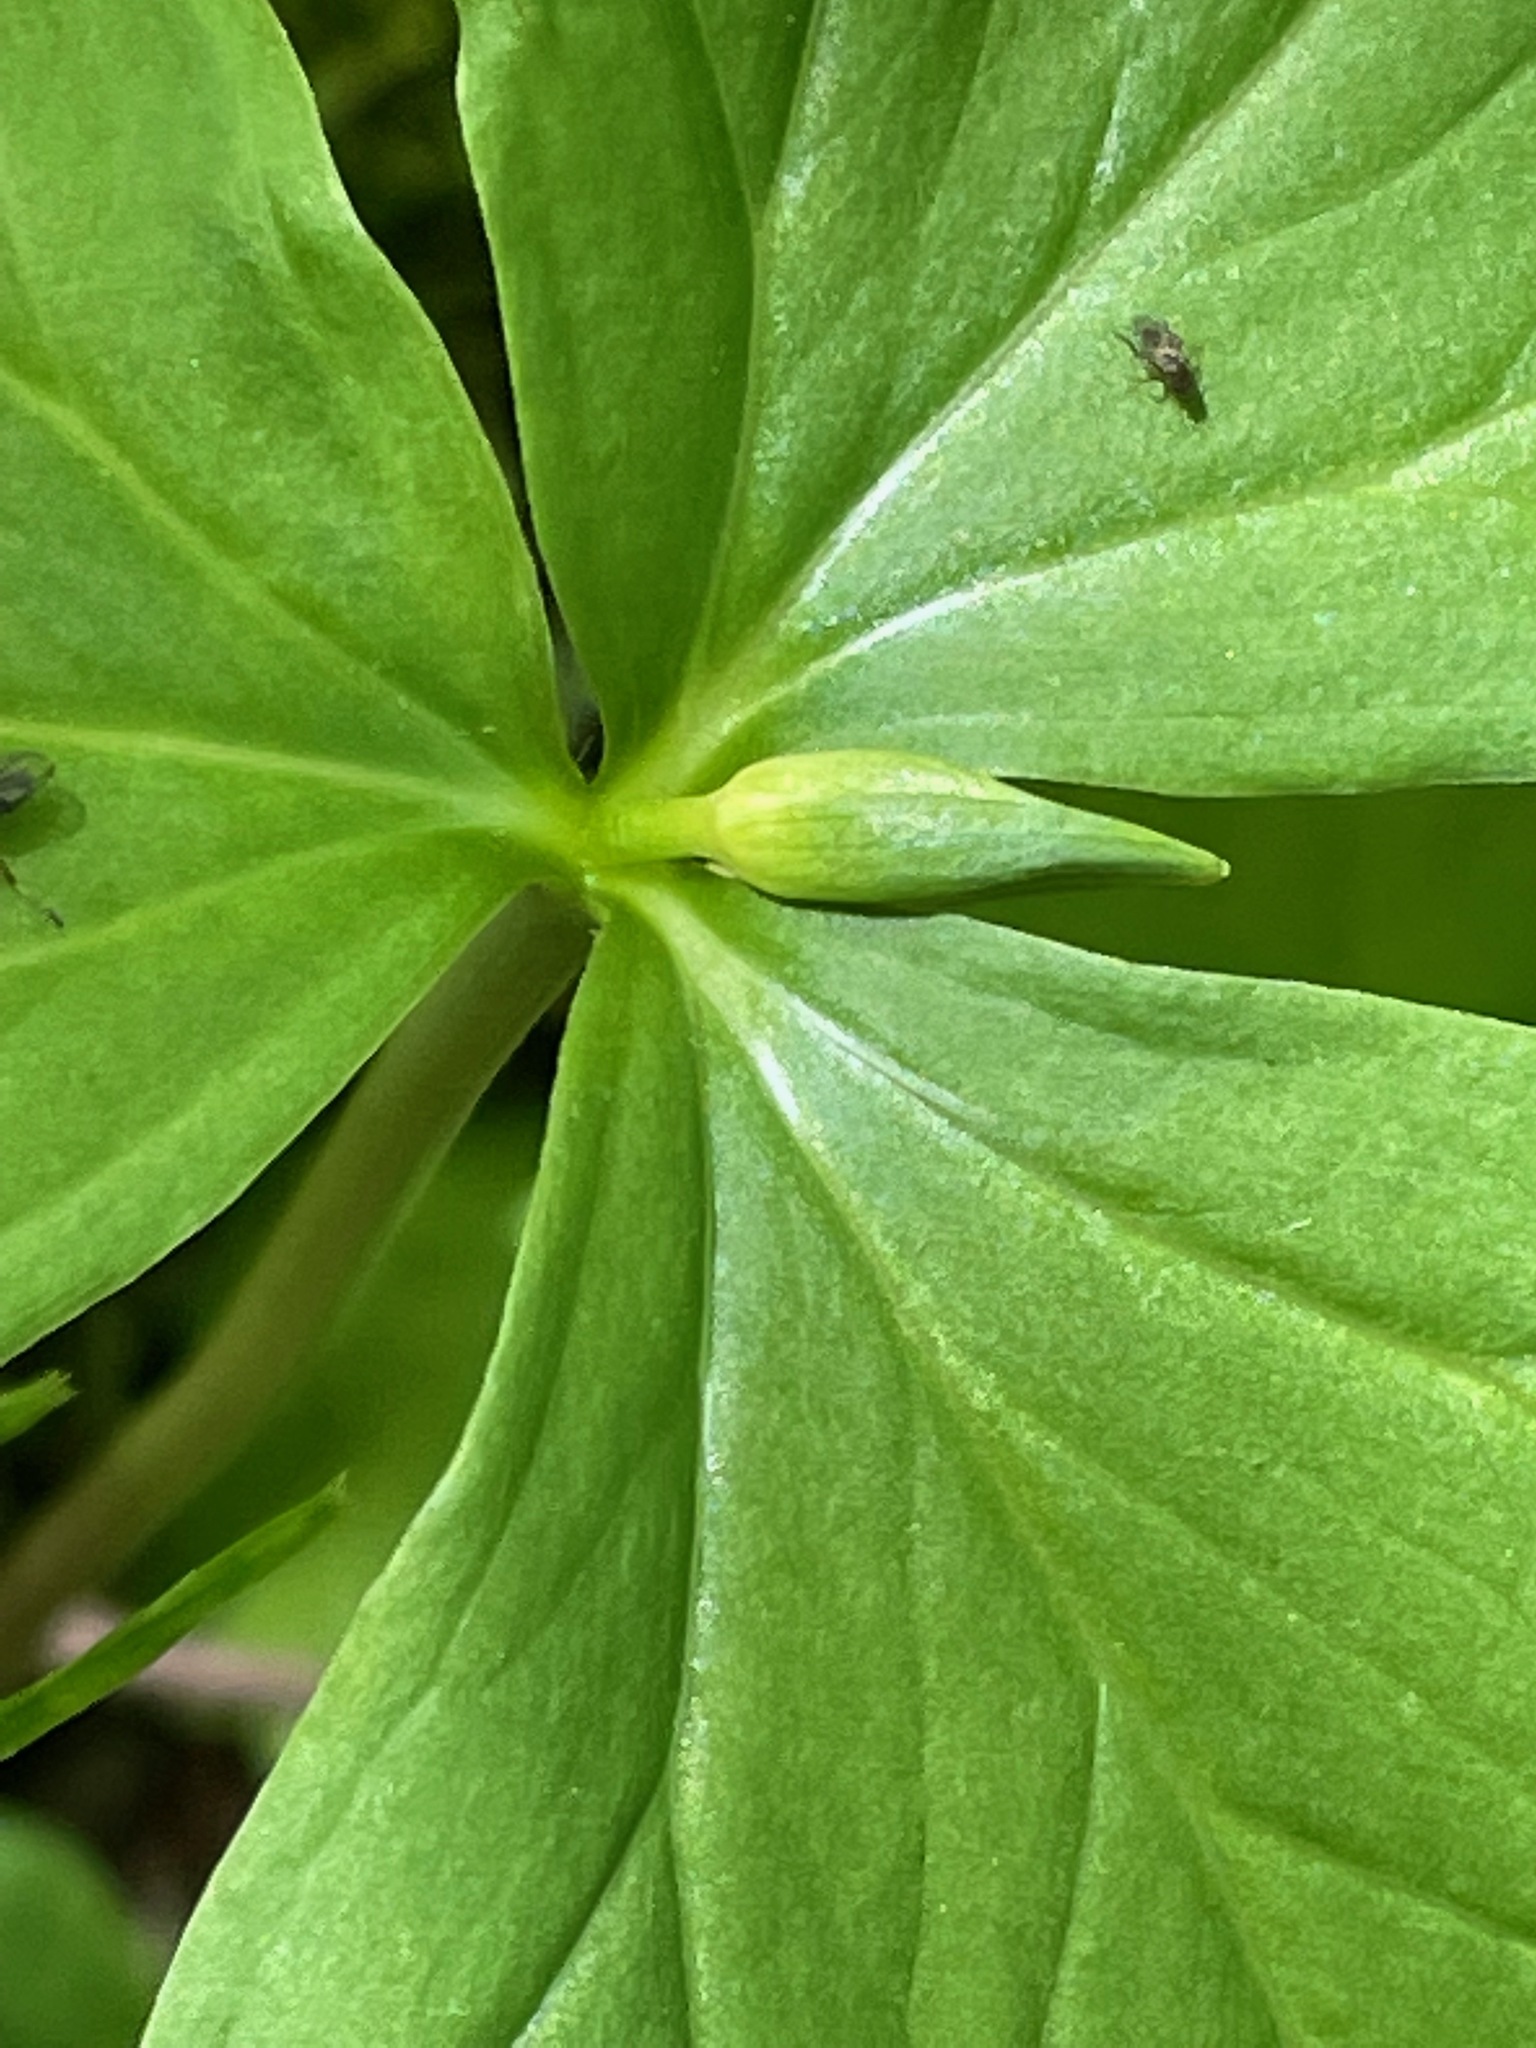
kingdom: Plantae
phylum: Tracheophyta
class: Liliopsida
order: Liliales
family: Melanthiaceae
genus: Trillium
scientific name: Trillium cernuum
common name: Nodding trillium
